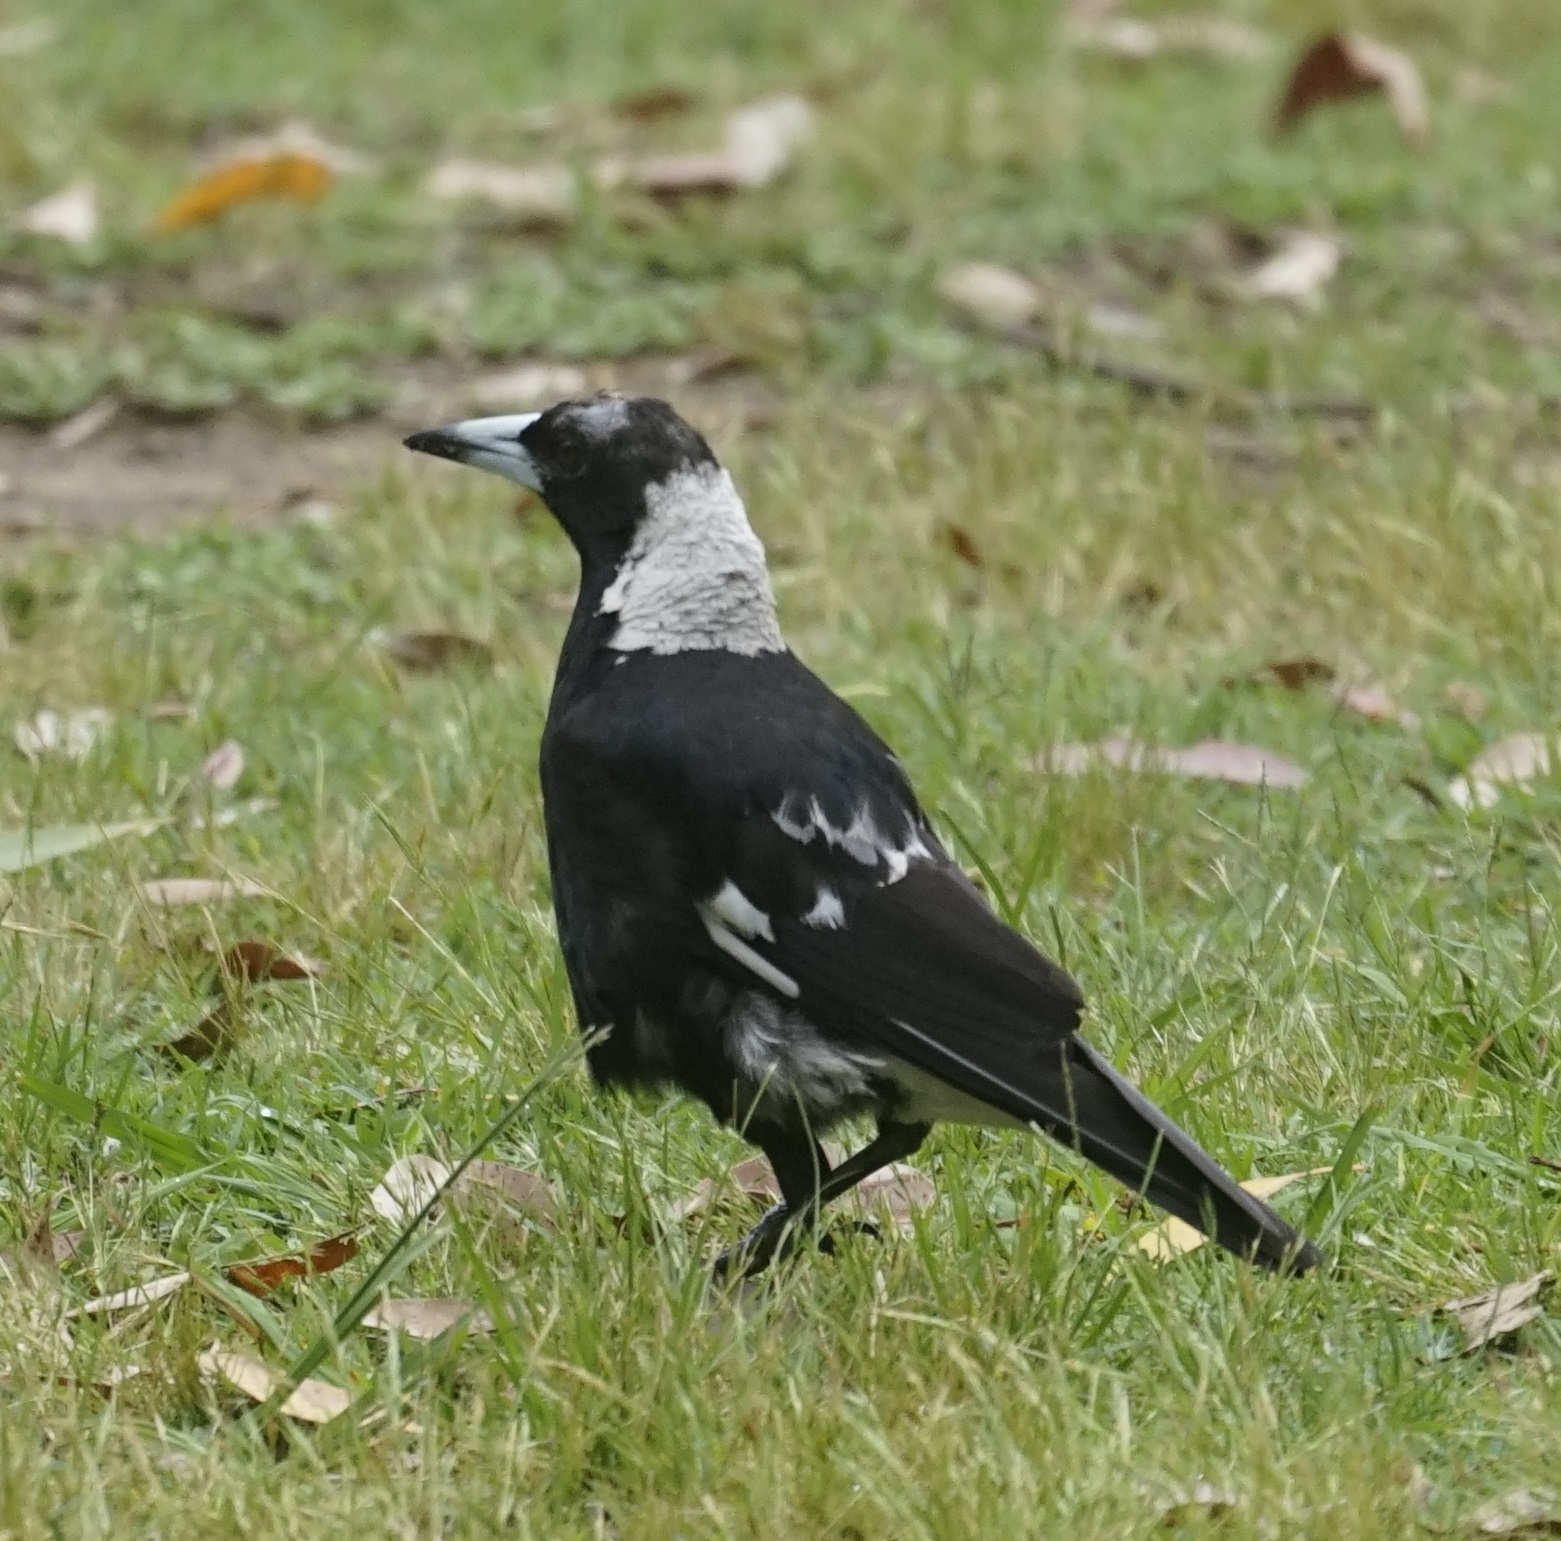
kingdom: Animalia
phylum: Chordata
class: Aves
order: Passeriformes
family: Cracticidae
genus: Gymnorhina
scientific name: Gymnorhina tibicen
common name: Australian magpie
